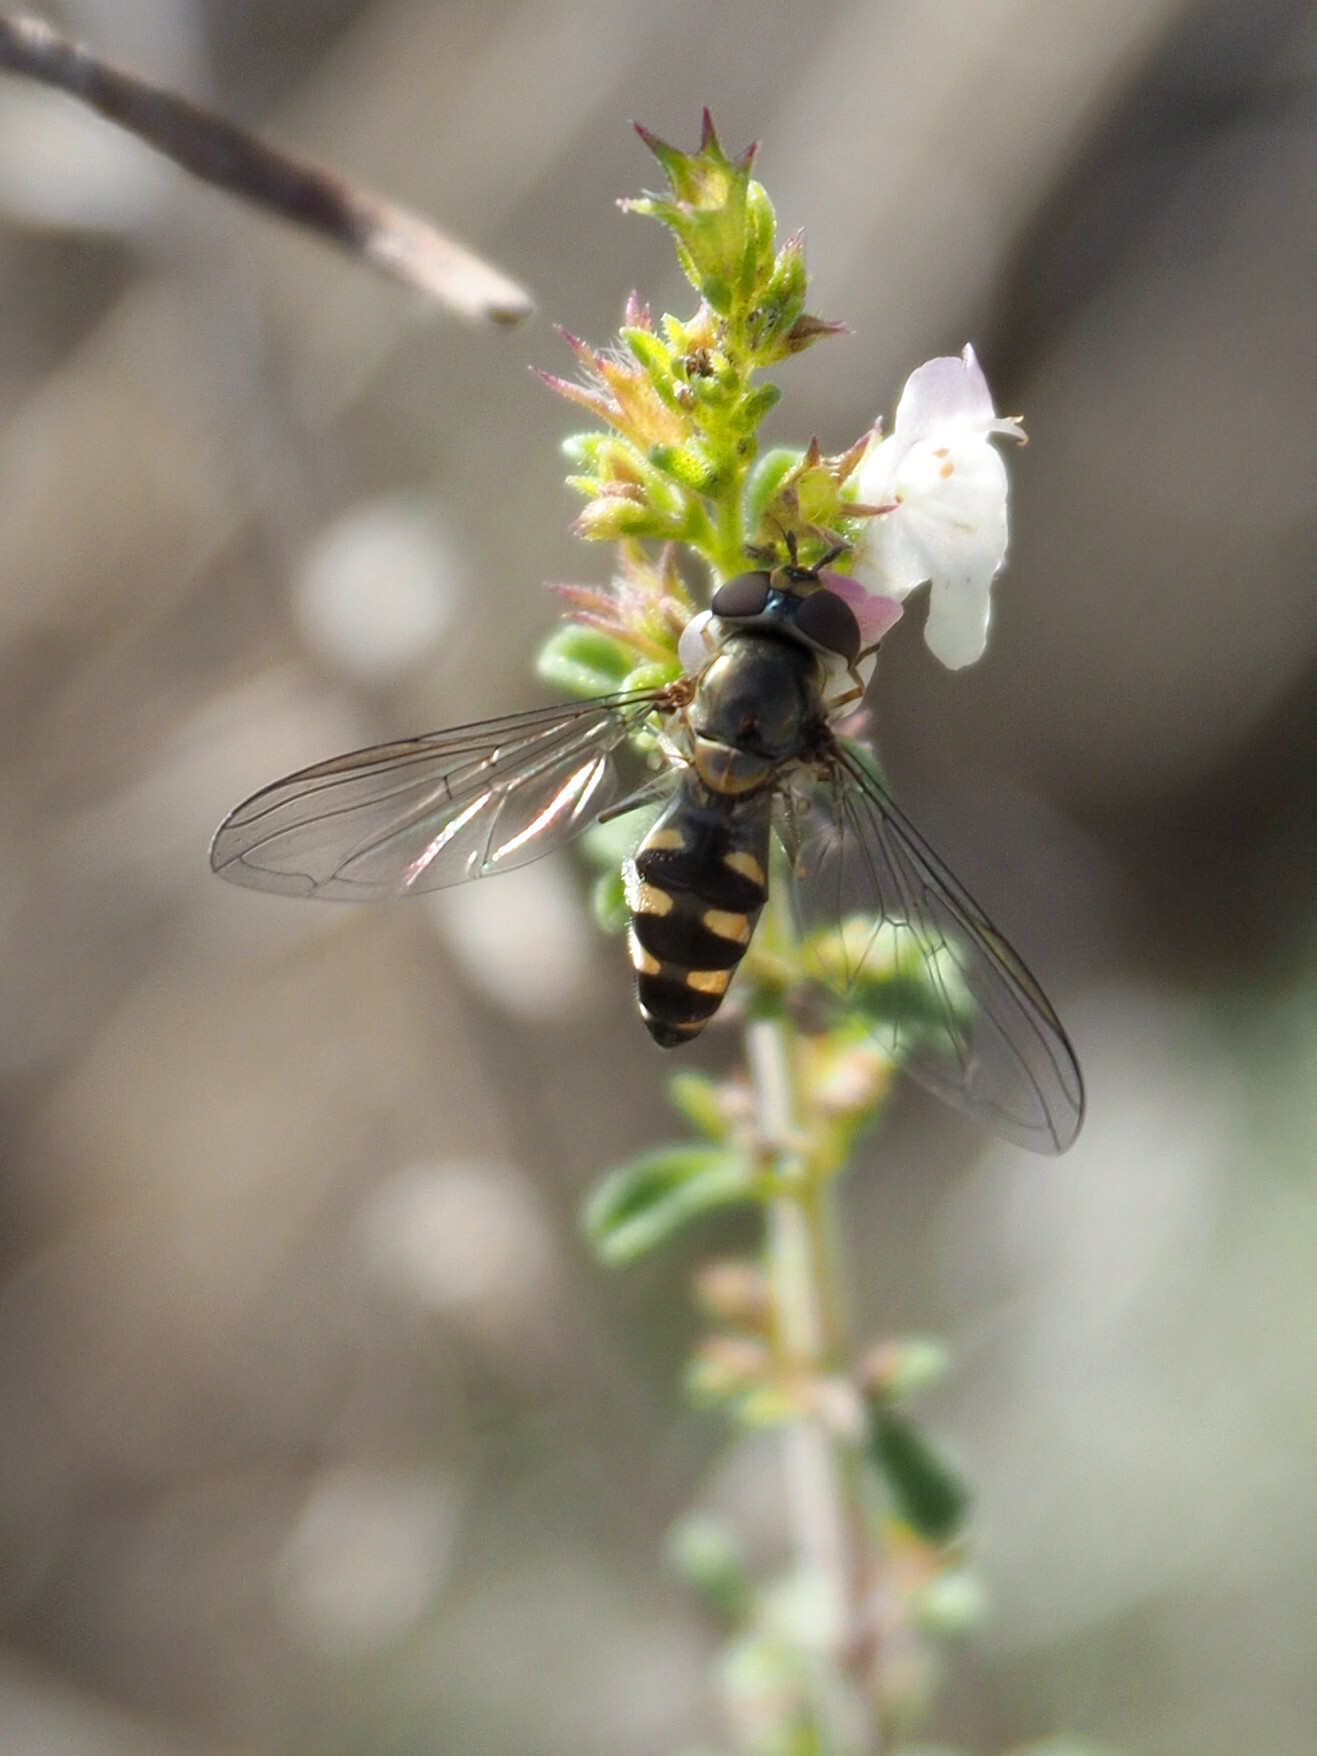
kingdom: Animalia
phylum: Arthropoda
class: Insecta
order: Diptera
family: Syrphidae
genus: Meliscaeva
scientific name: Meliscaeva auricollis
